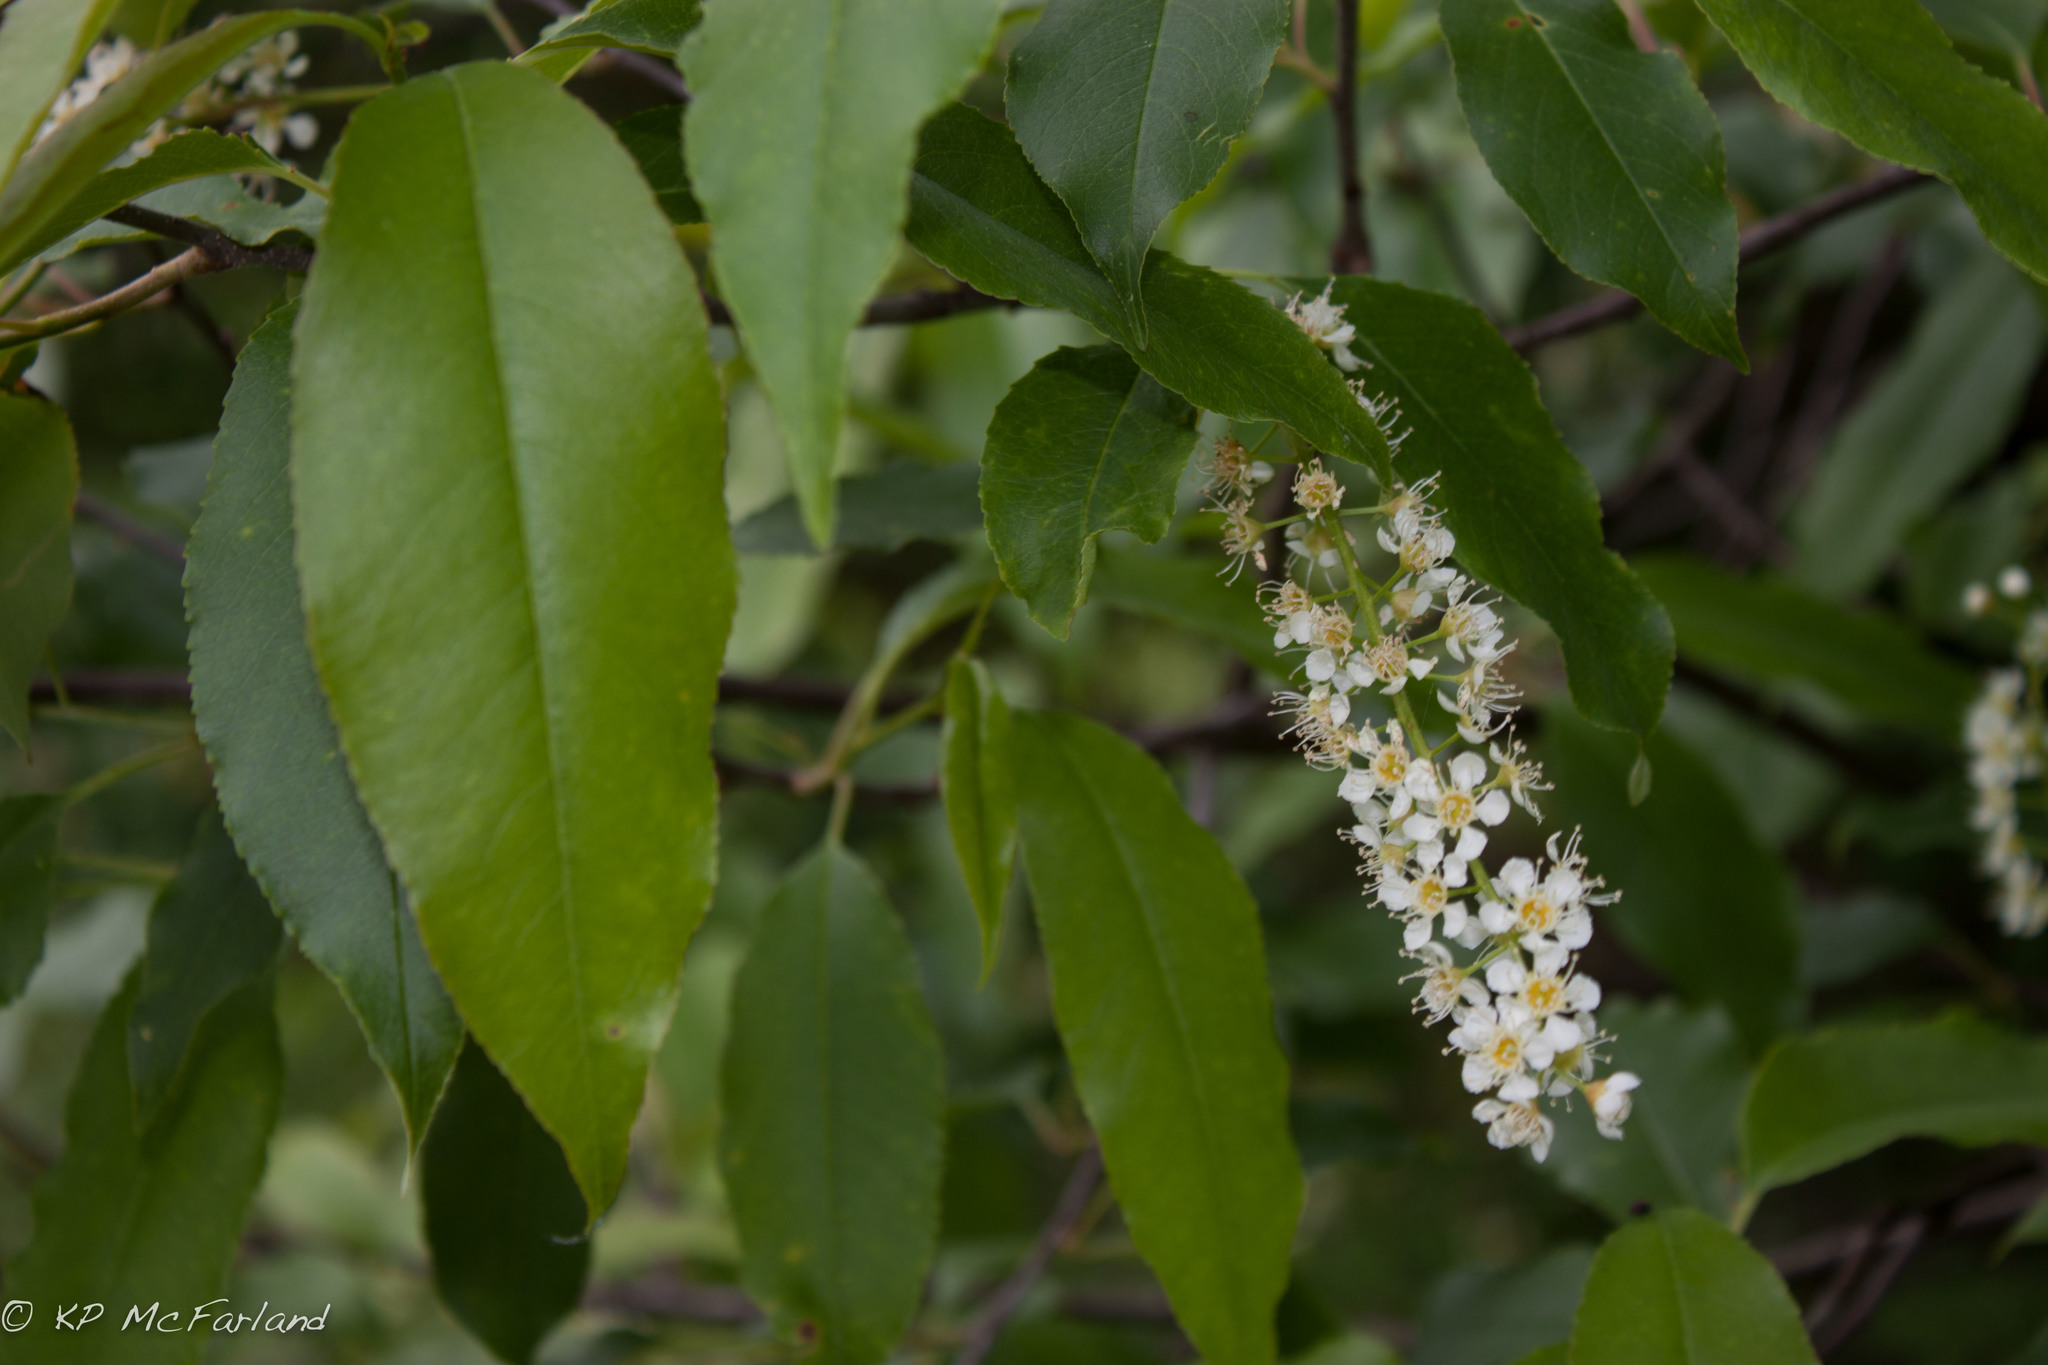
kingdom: Plantae
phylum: Tracheophyta
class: Magnoliopsida
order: Rosales
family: Rosaceae
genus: Prunus
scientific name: Prunus serotina
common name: Black cherry
